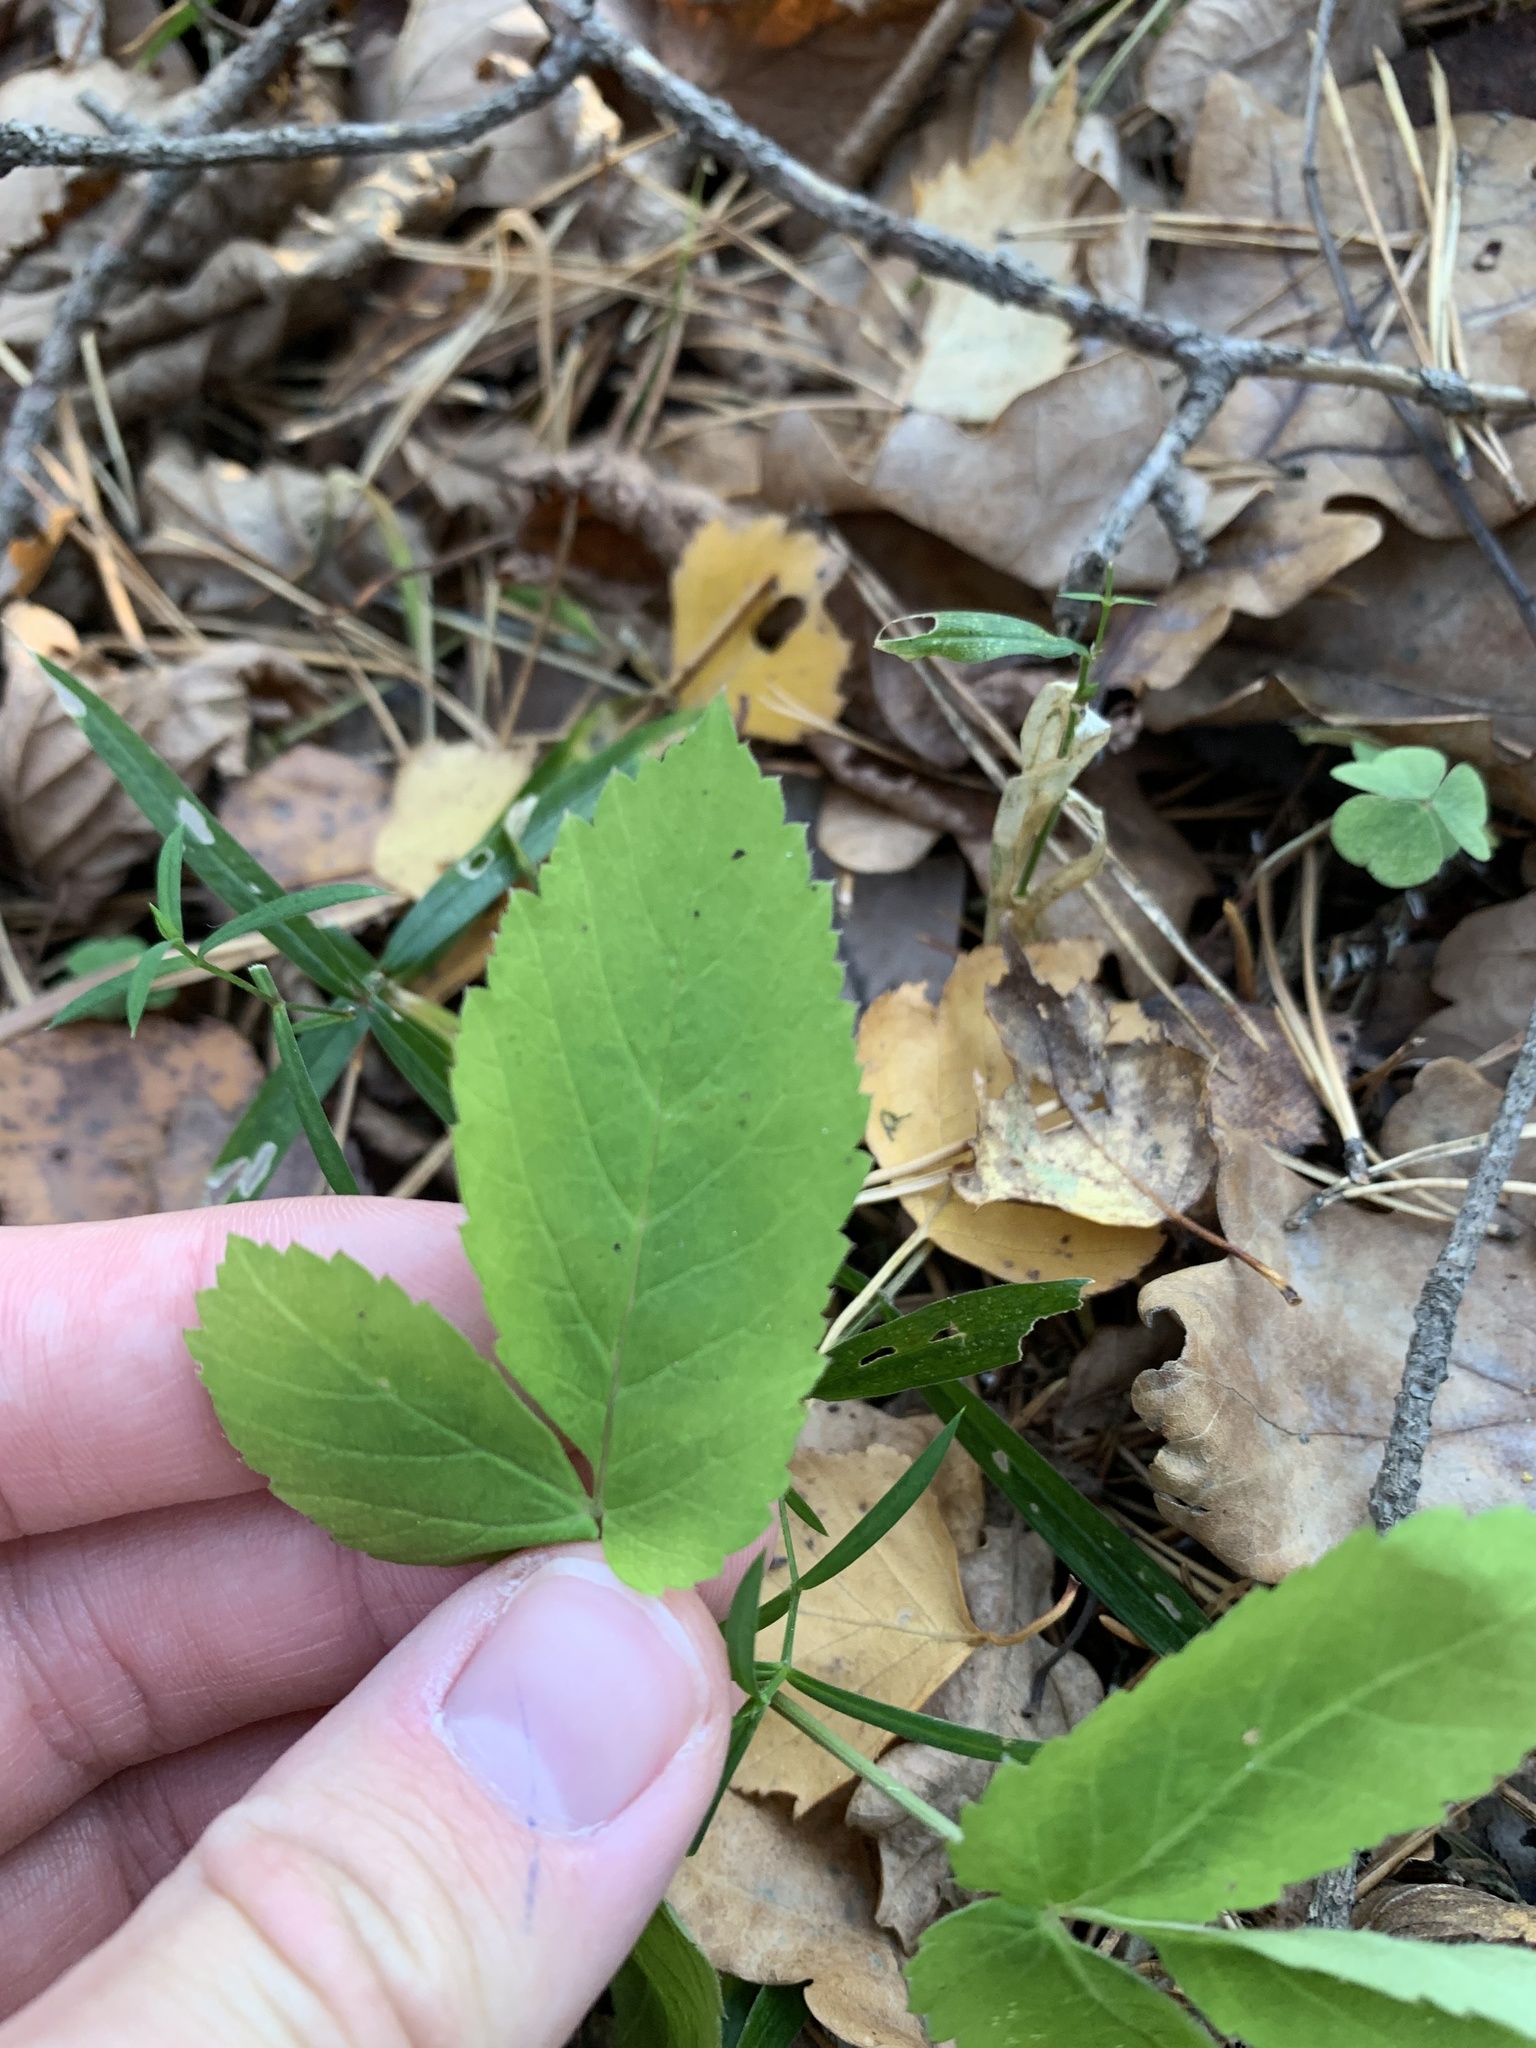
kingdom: Plantae
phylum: Tracheophyta
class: Magnoliopsida
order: Apiales
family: Apiaceae
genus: Aegopodium
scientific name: Aegopodium podagraria
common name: Ground-elder
